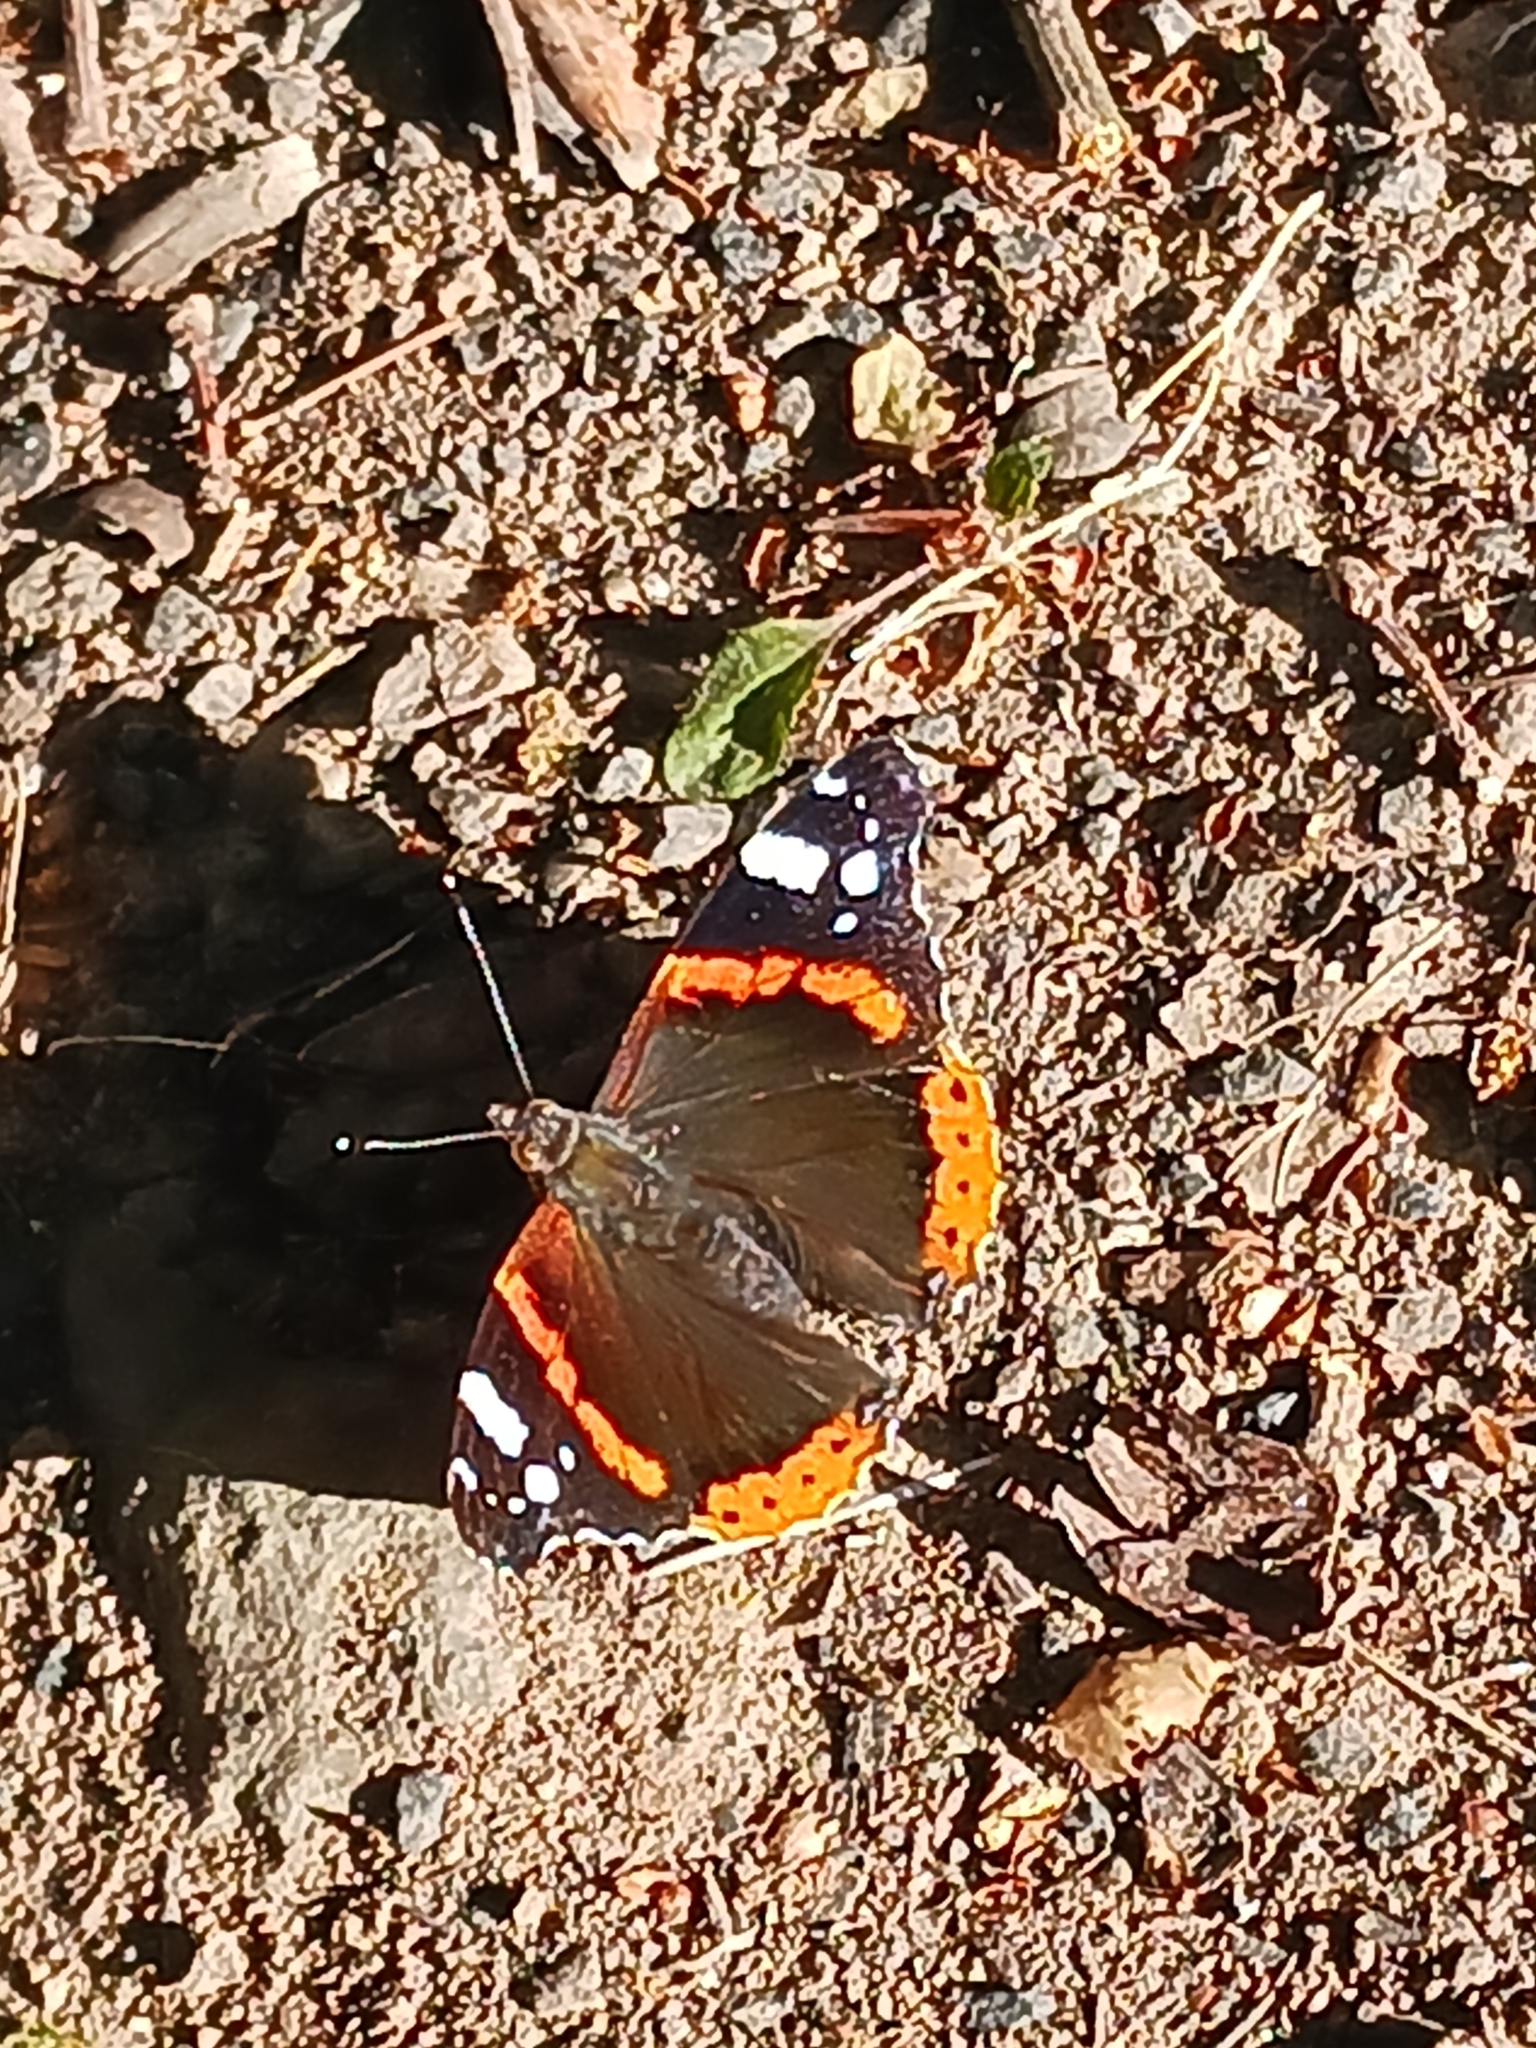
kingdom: Animalia
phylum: Arthropoda
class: Insecta
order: Lepidoptera
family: Nymphalidae
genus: Vanessa
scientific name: Vanessa atalanta
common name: Red admiral
